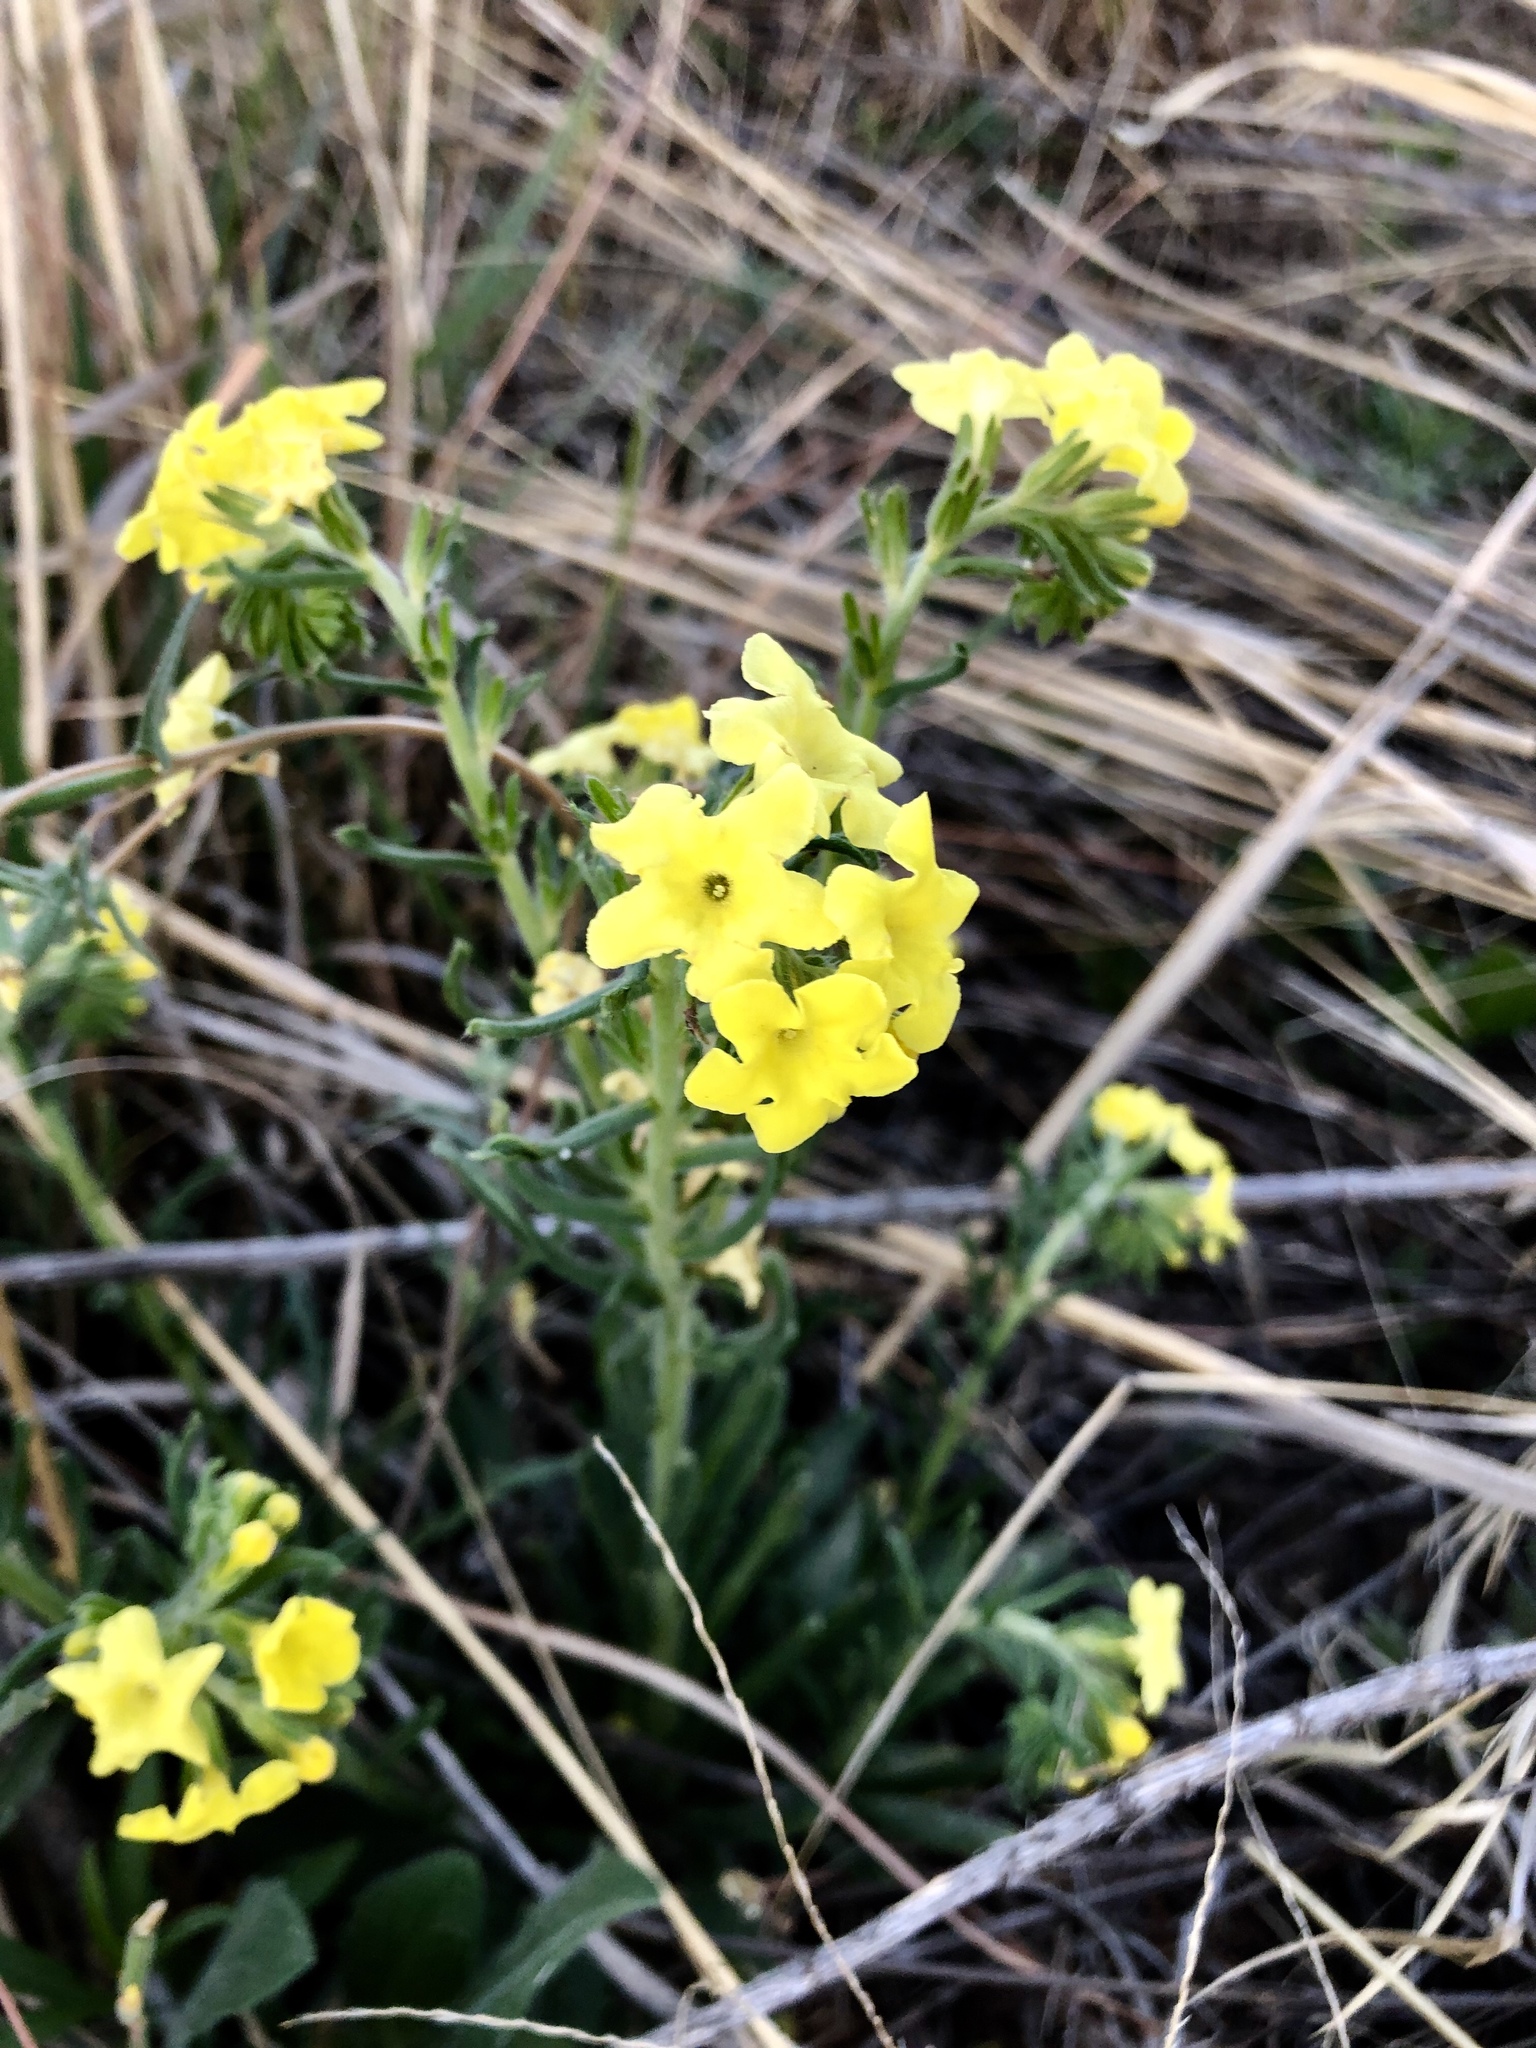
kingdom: Plantae
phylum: Tracheophyta
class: Magnoliopsida
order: Boraginales
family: Boraginaceae
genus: Lithospermum
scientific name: Lithospermum multiflorum
